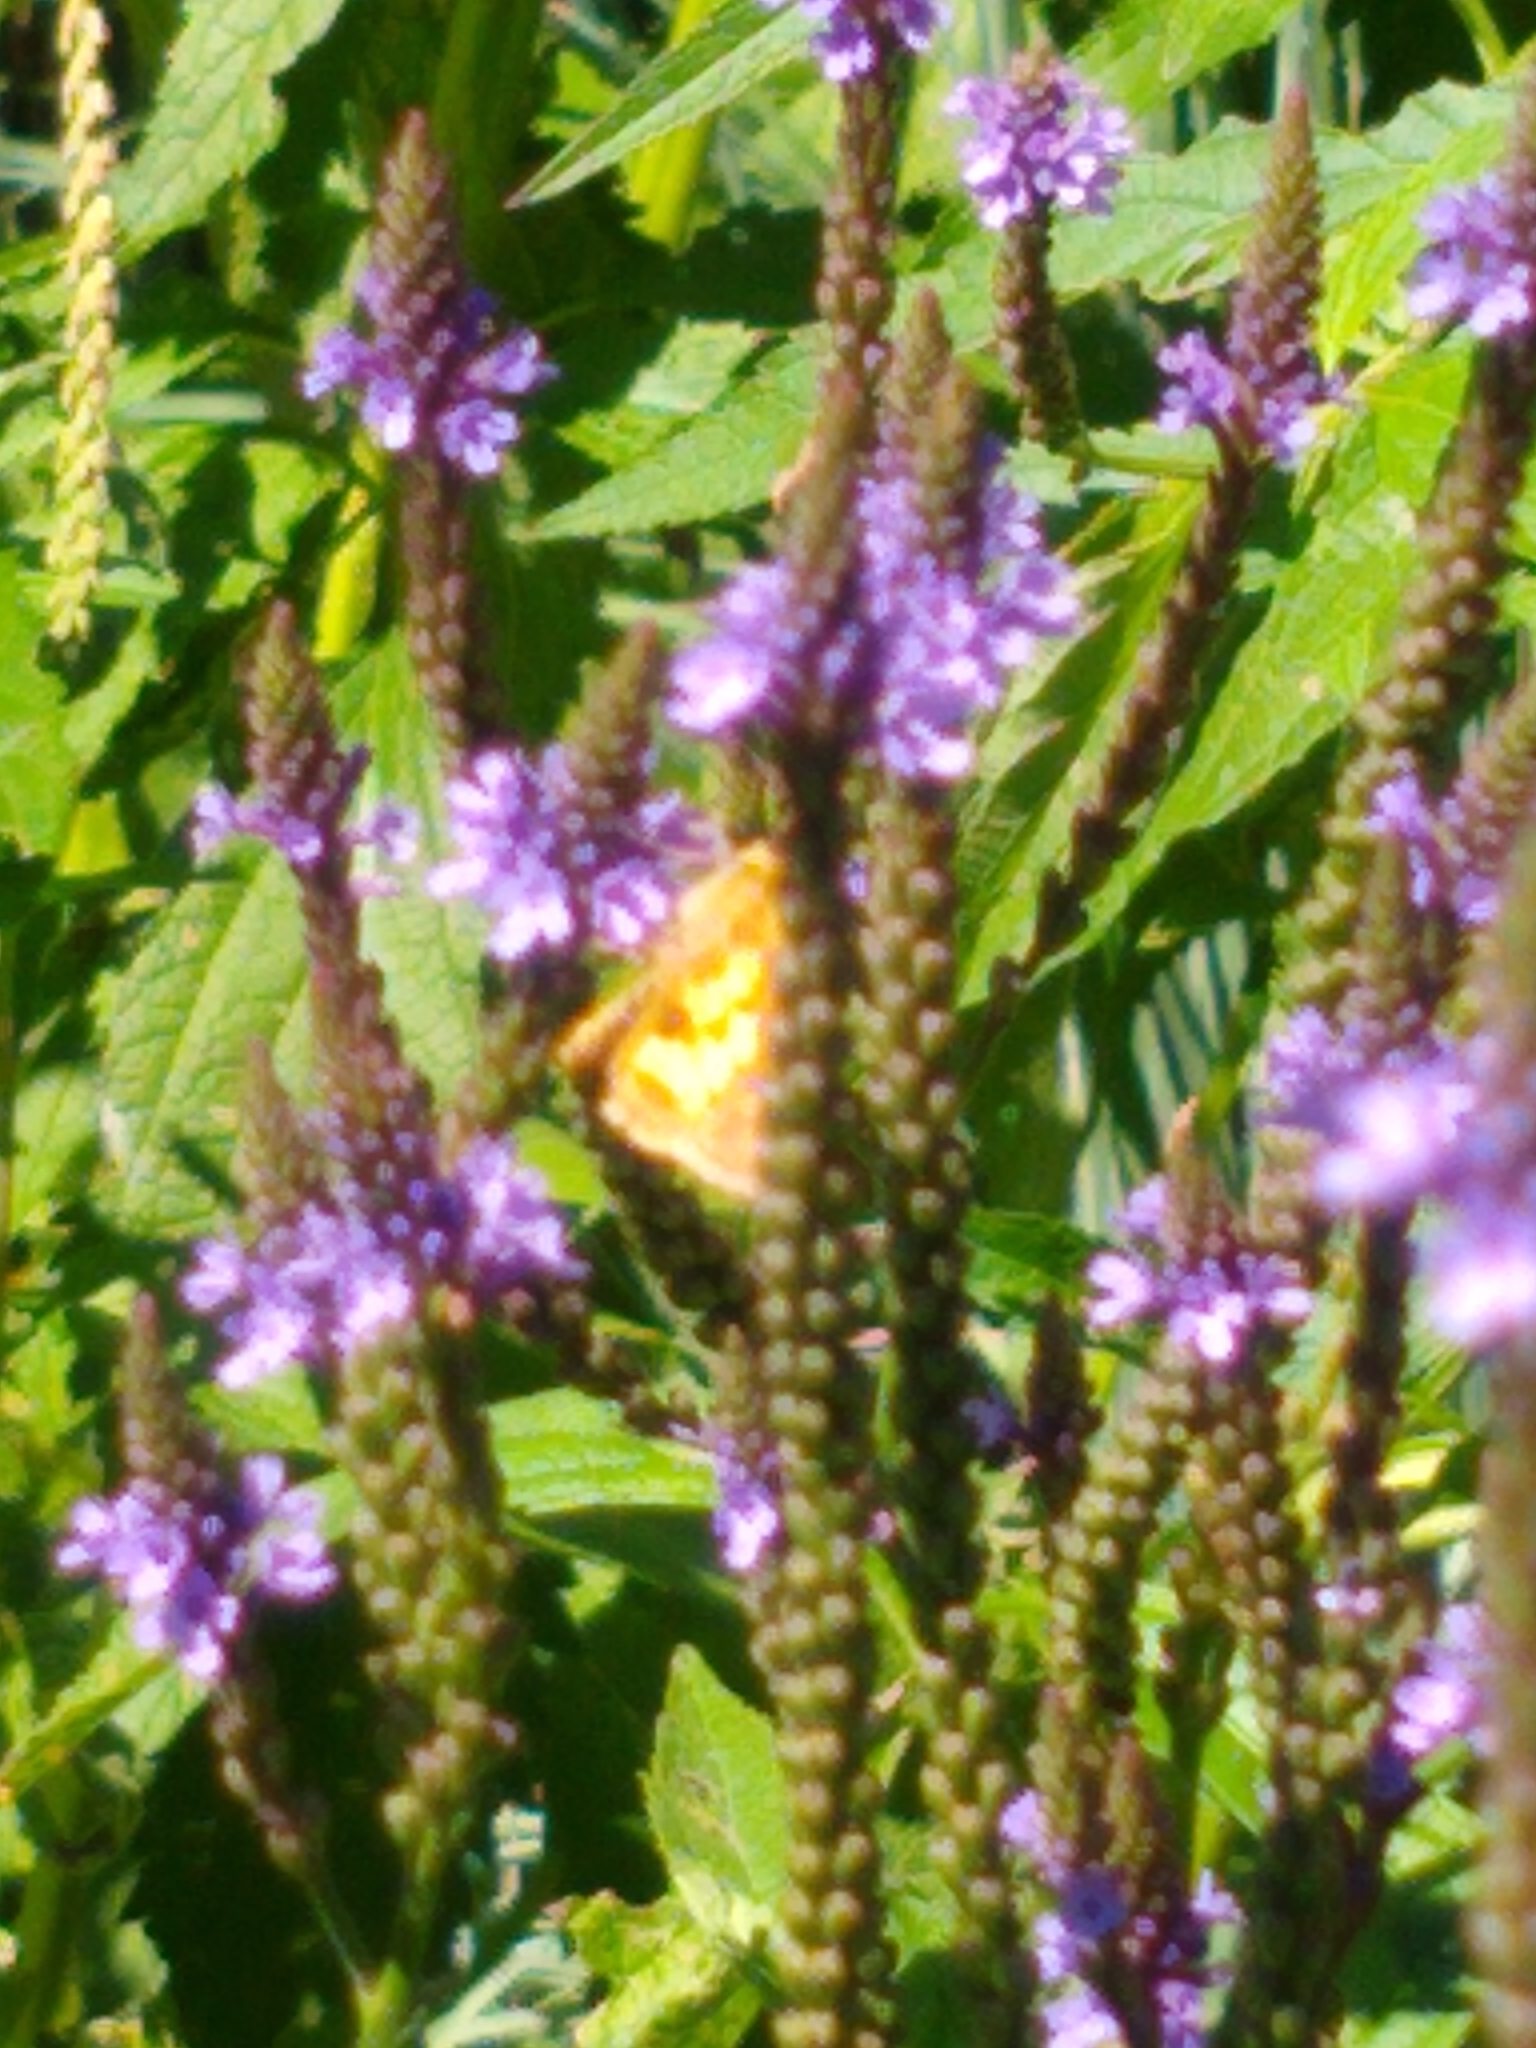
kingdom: Animalia
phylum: Arthropoda
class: Insecta
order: Lepidoptera
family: Hesperiidae
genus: Polites
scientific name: Polites coras
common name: Peck's skipper
